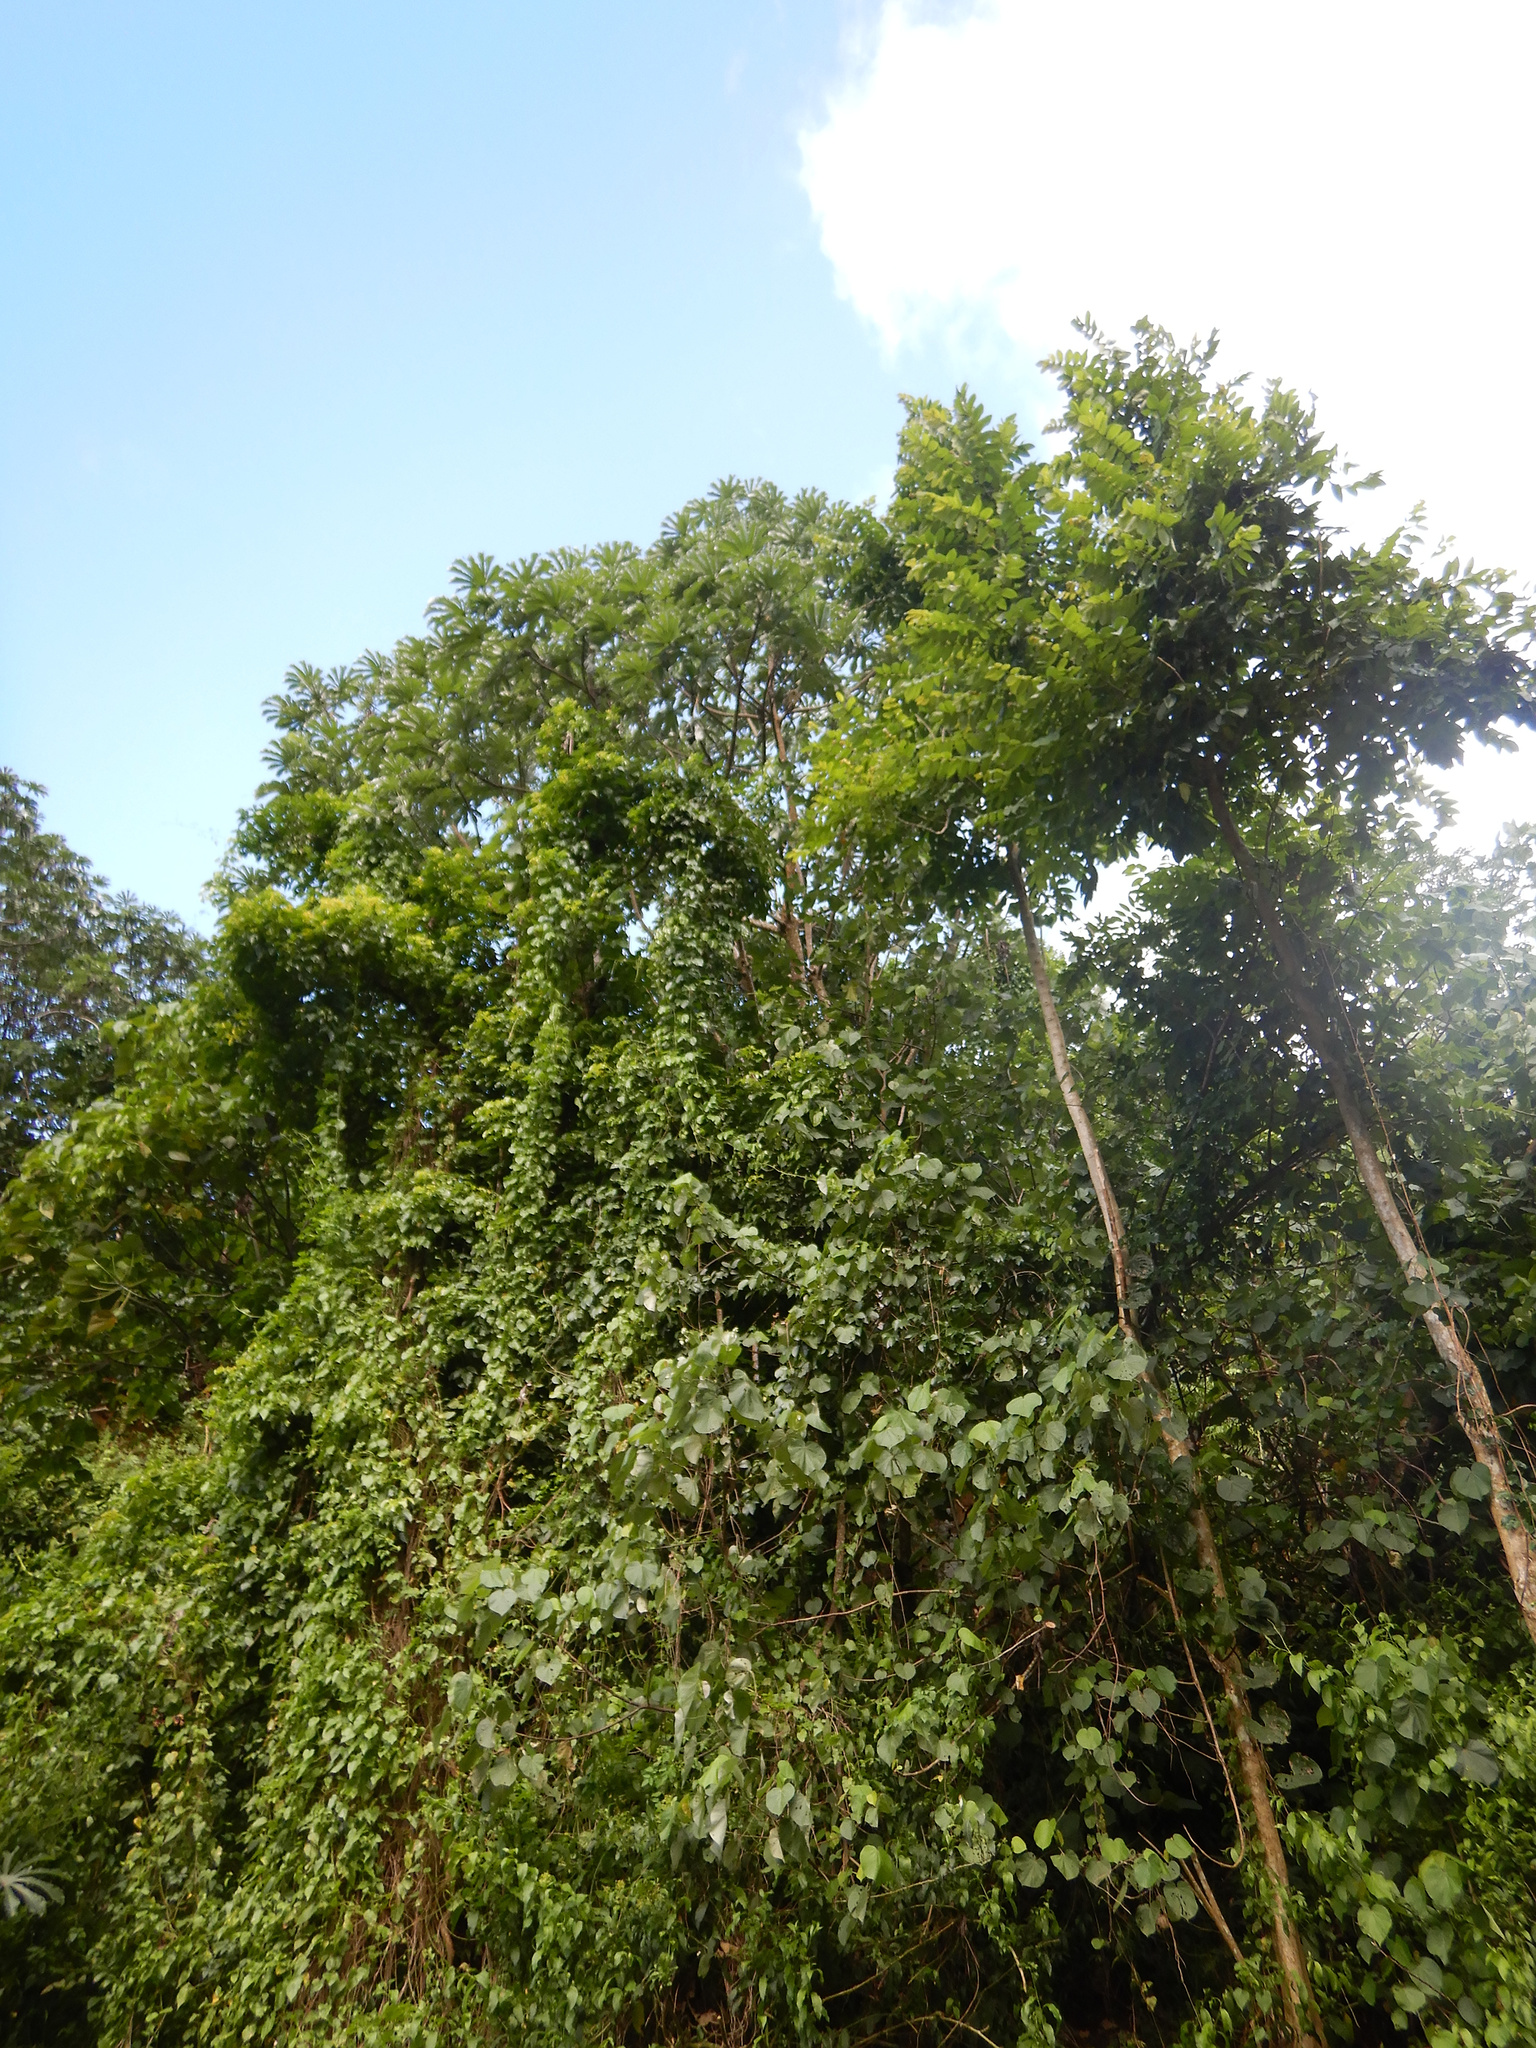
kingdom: Plantae
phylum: Tracheophyta
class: Magnoliopsida
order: Rosales
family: Urticaceae
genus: Cecropia
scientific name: Cecropia pachystachya
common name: Ambay pumpwood
